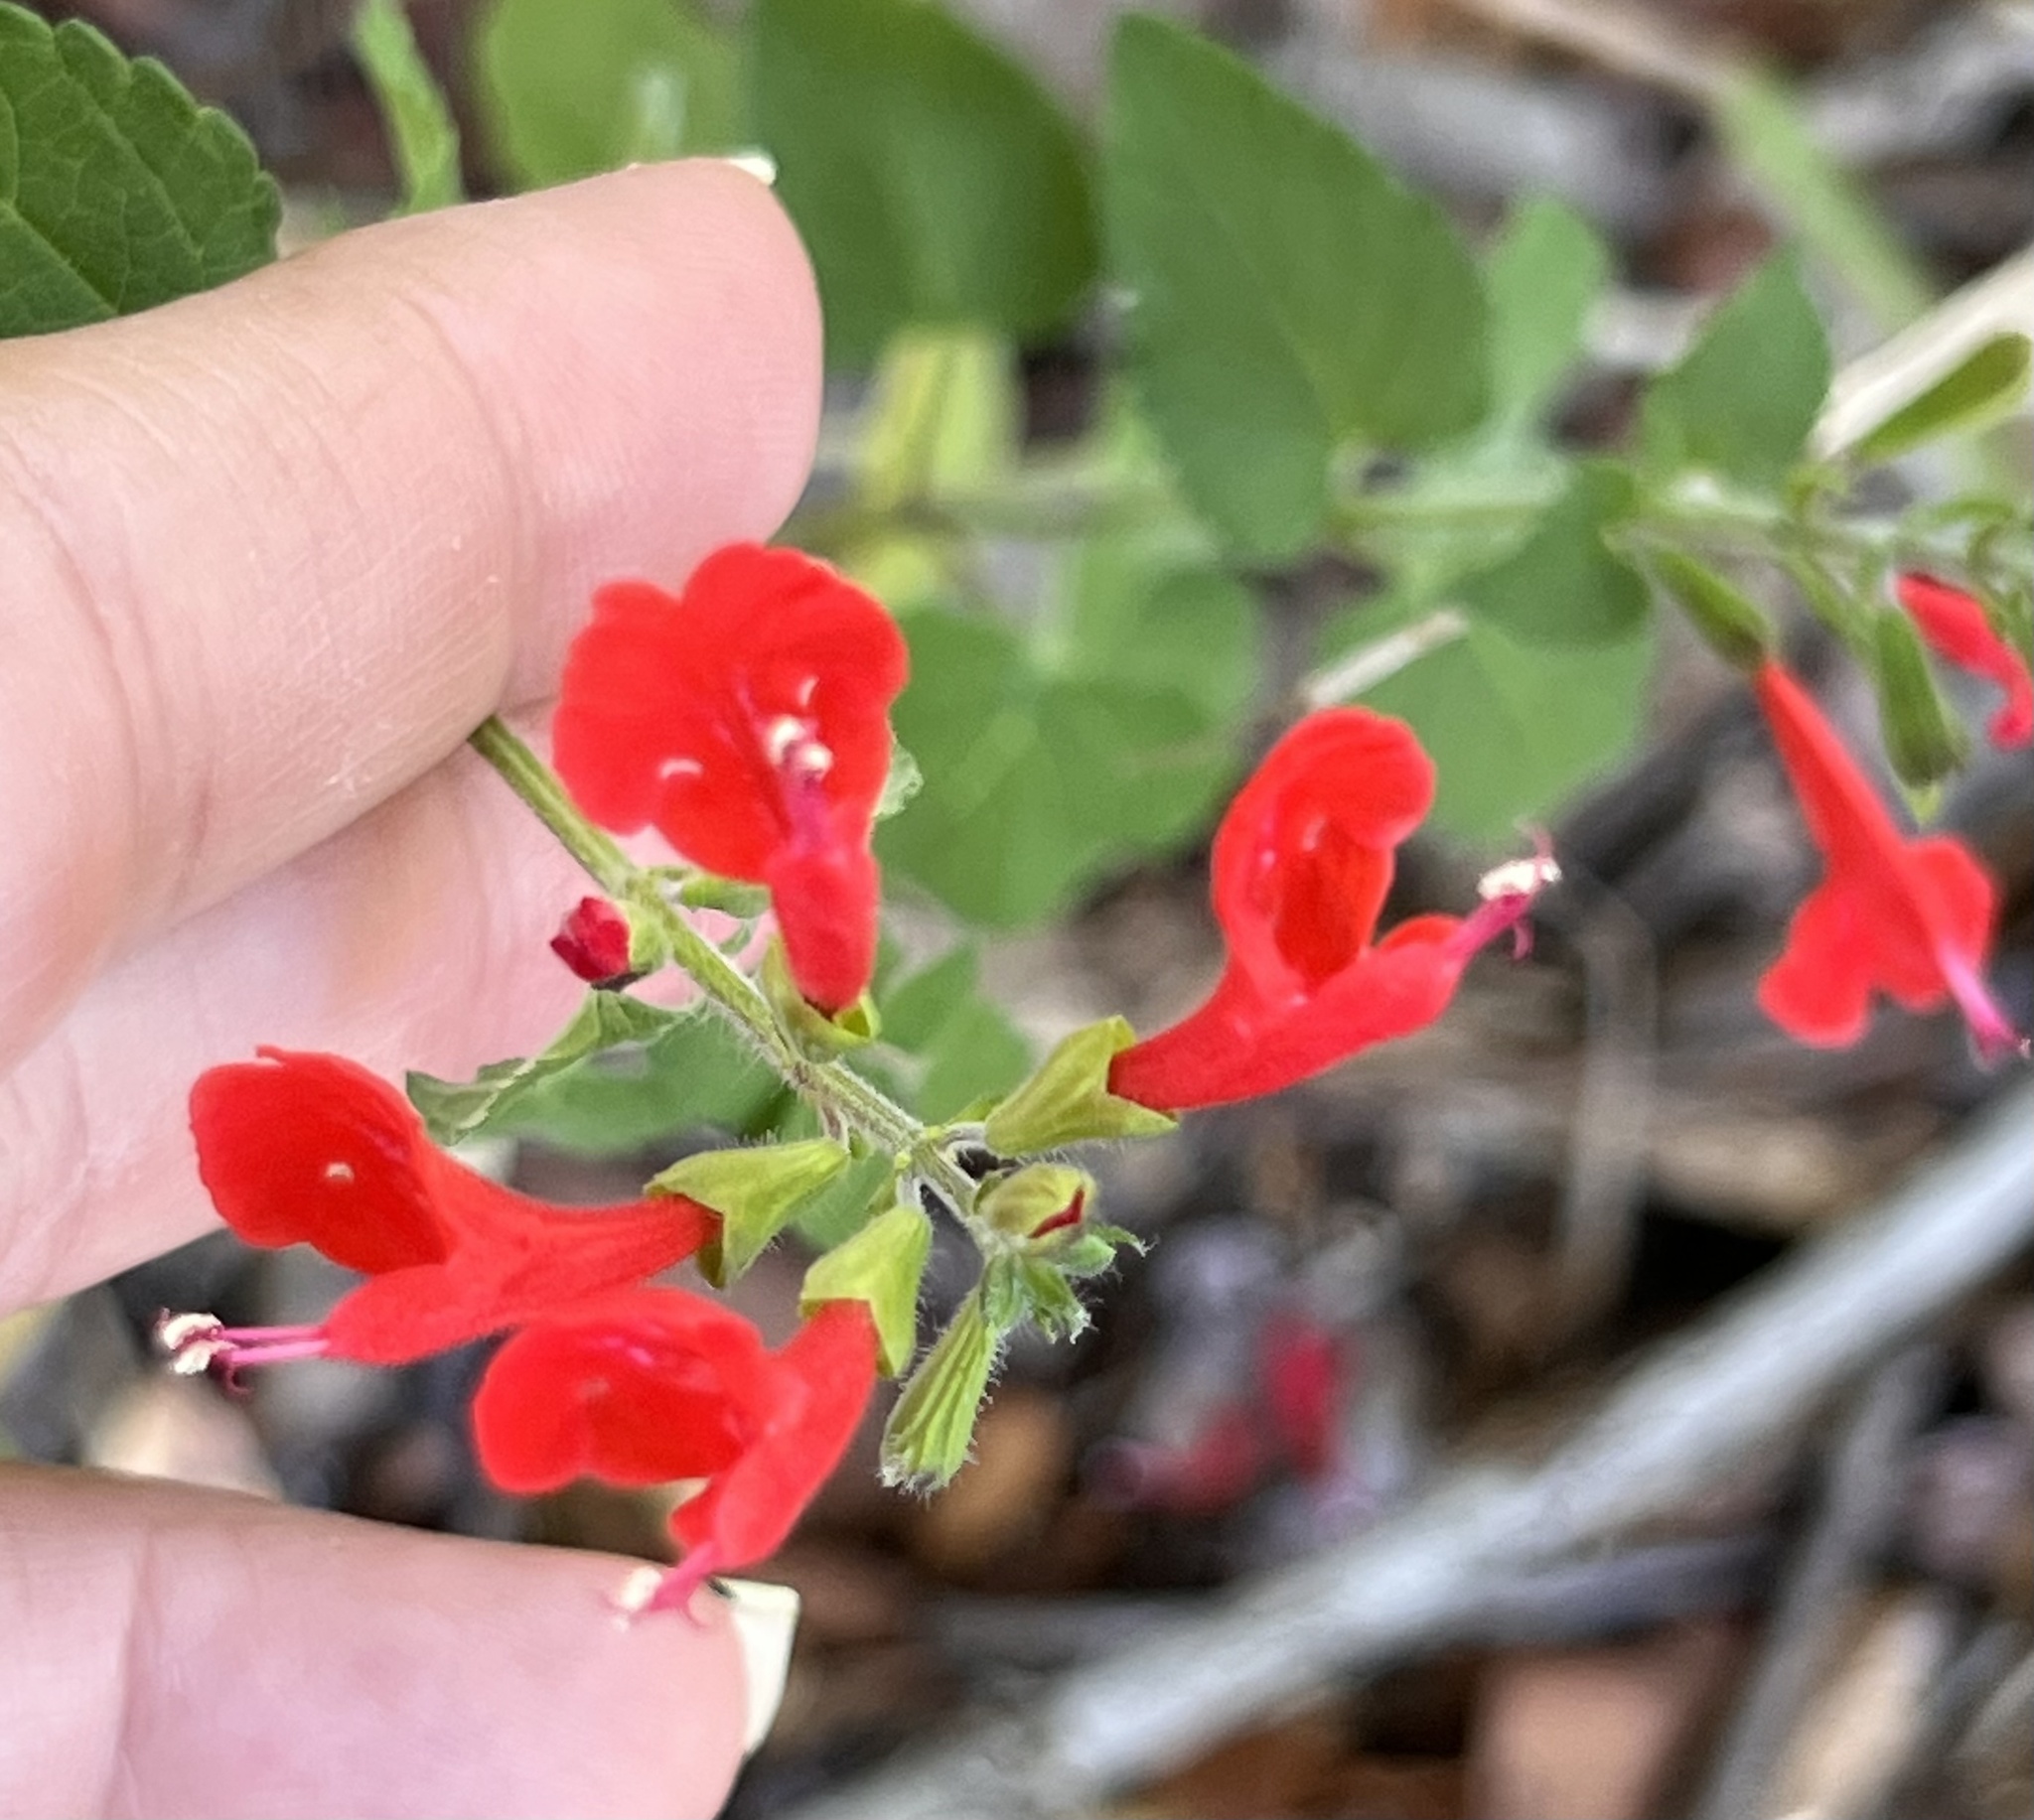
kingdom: Plantae
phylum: Tracheophyta
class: Magnoliopsida
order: Lamiales
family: Lamiaceae
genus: Salvia
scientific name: Salvia roemeriana
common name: Cedar sage
